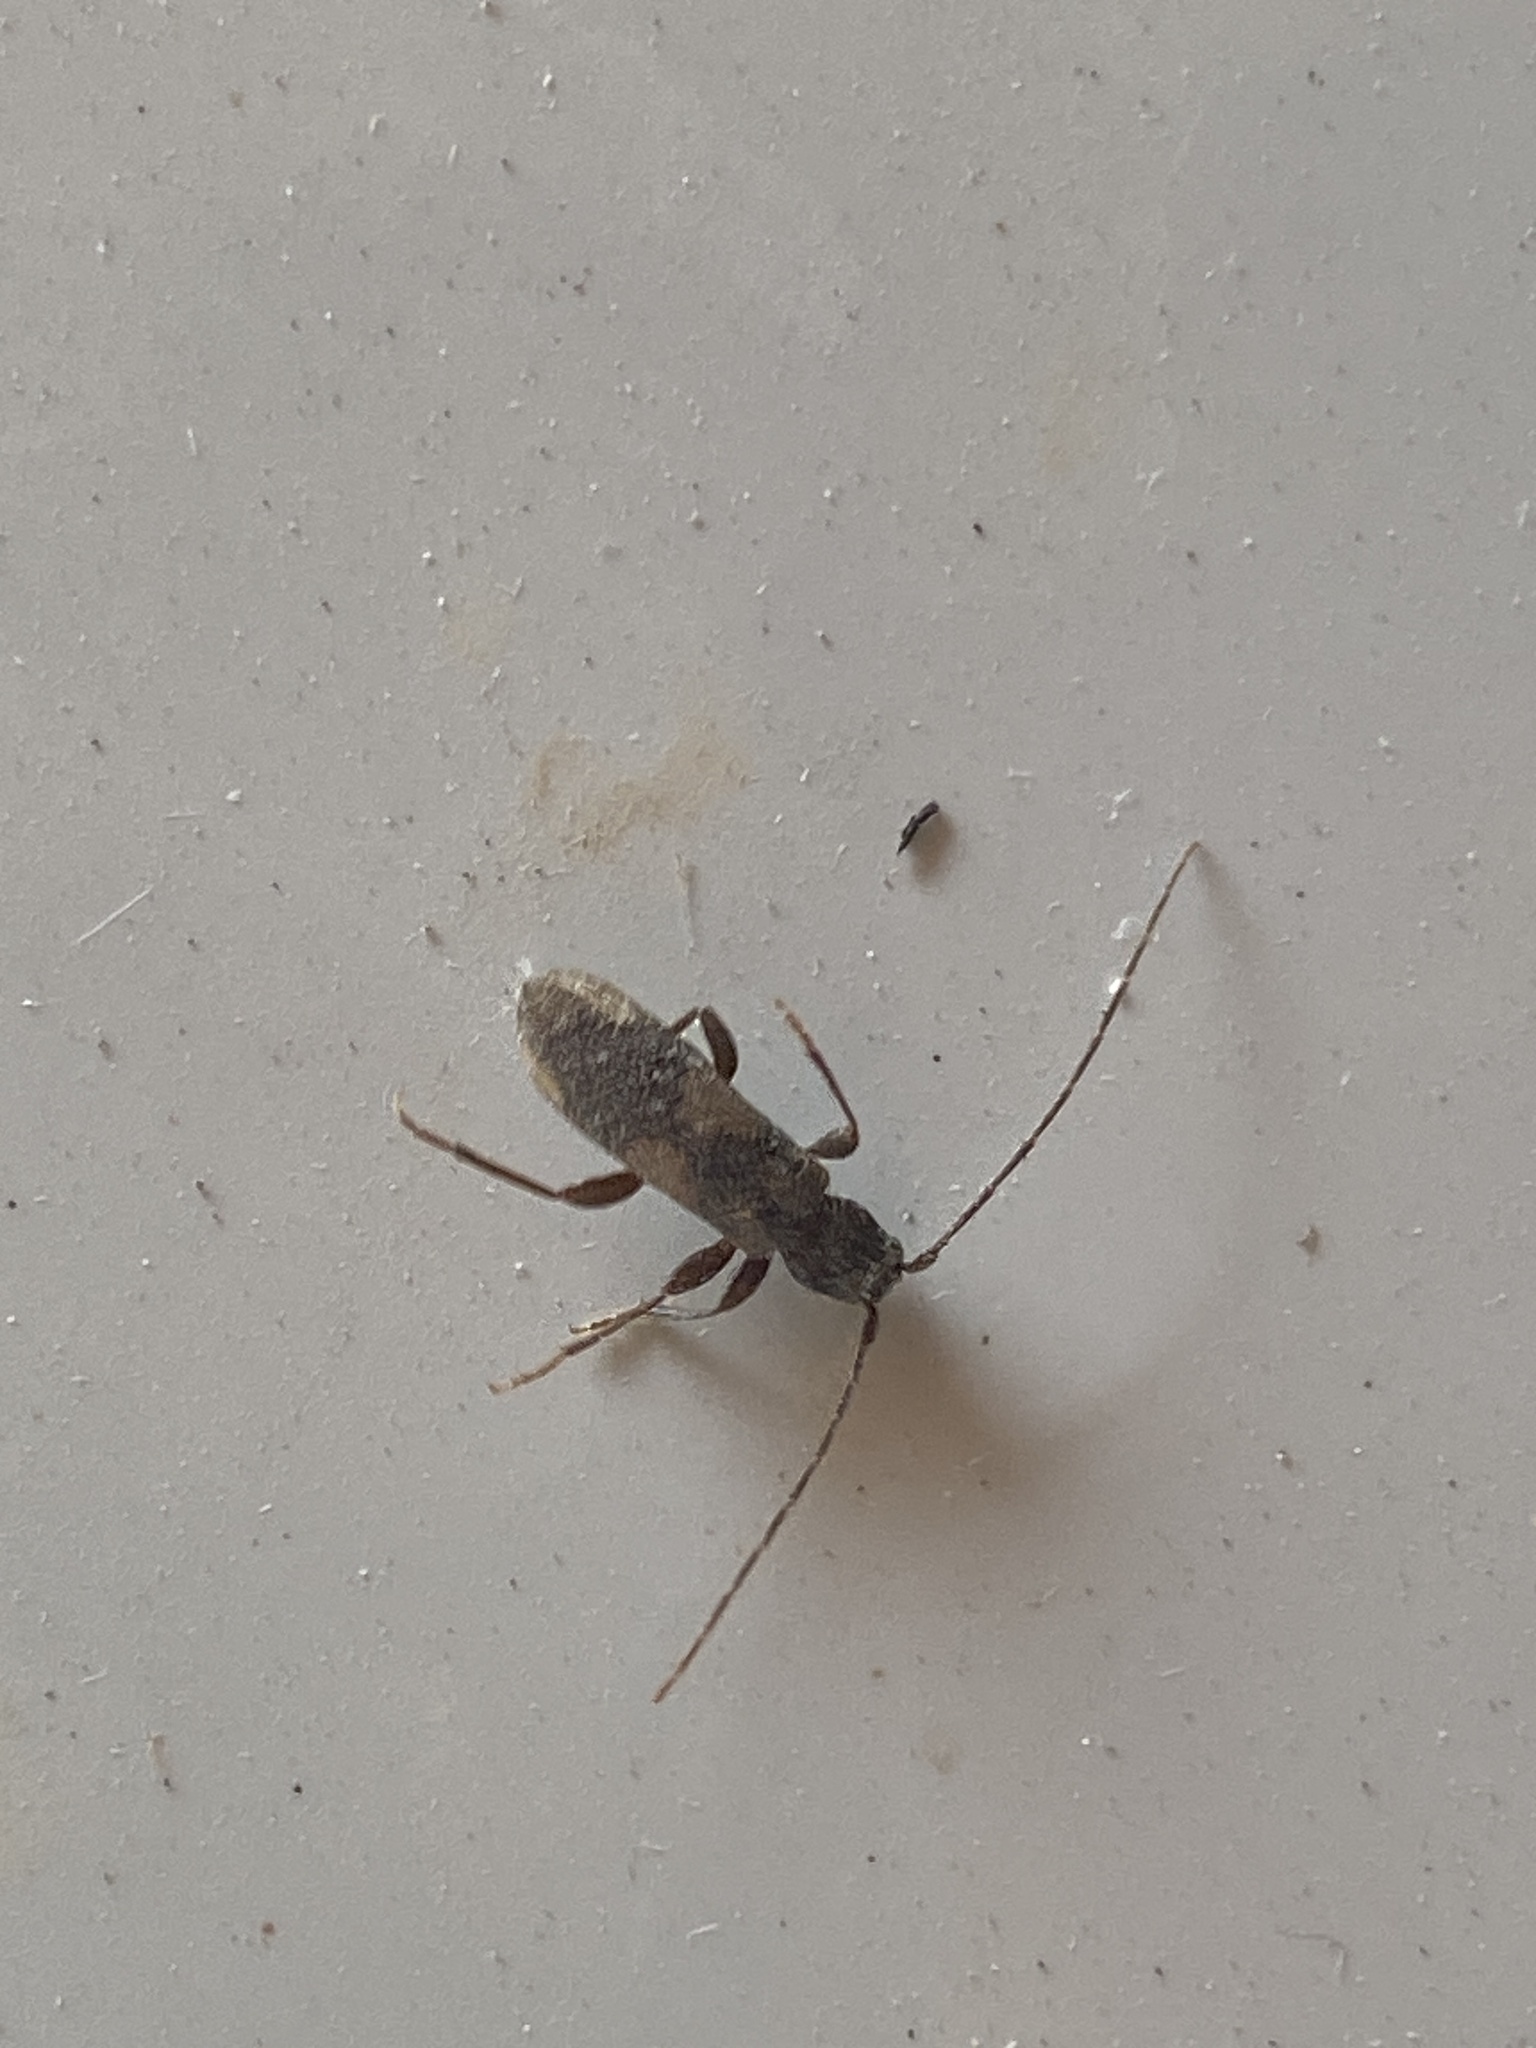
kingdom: Animalia
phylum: Arthropoda
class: Insecta
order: Coleoptera
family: Cerambycidae
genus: Penichroa
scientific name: Penichroa fasciata
